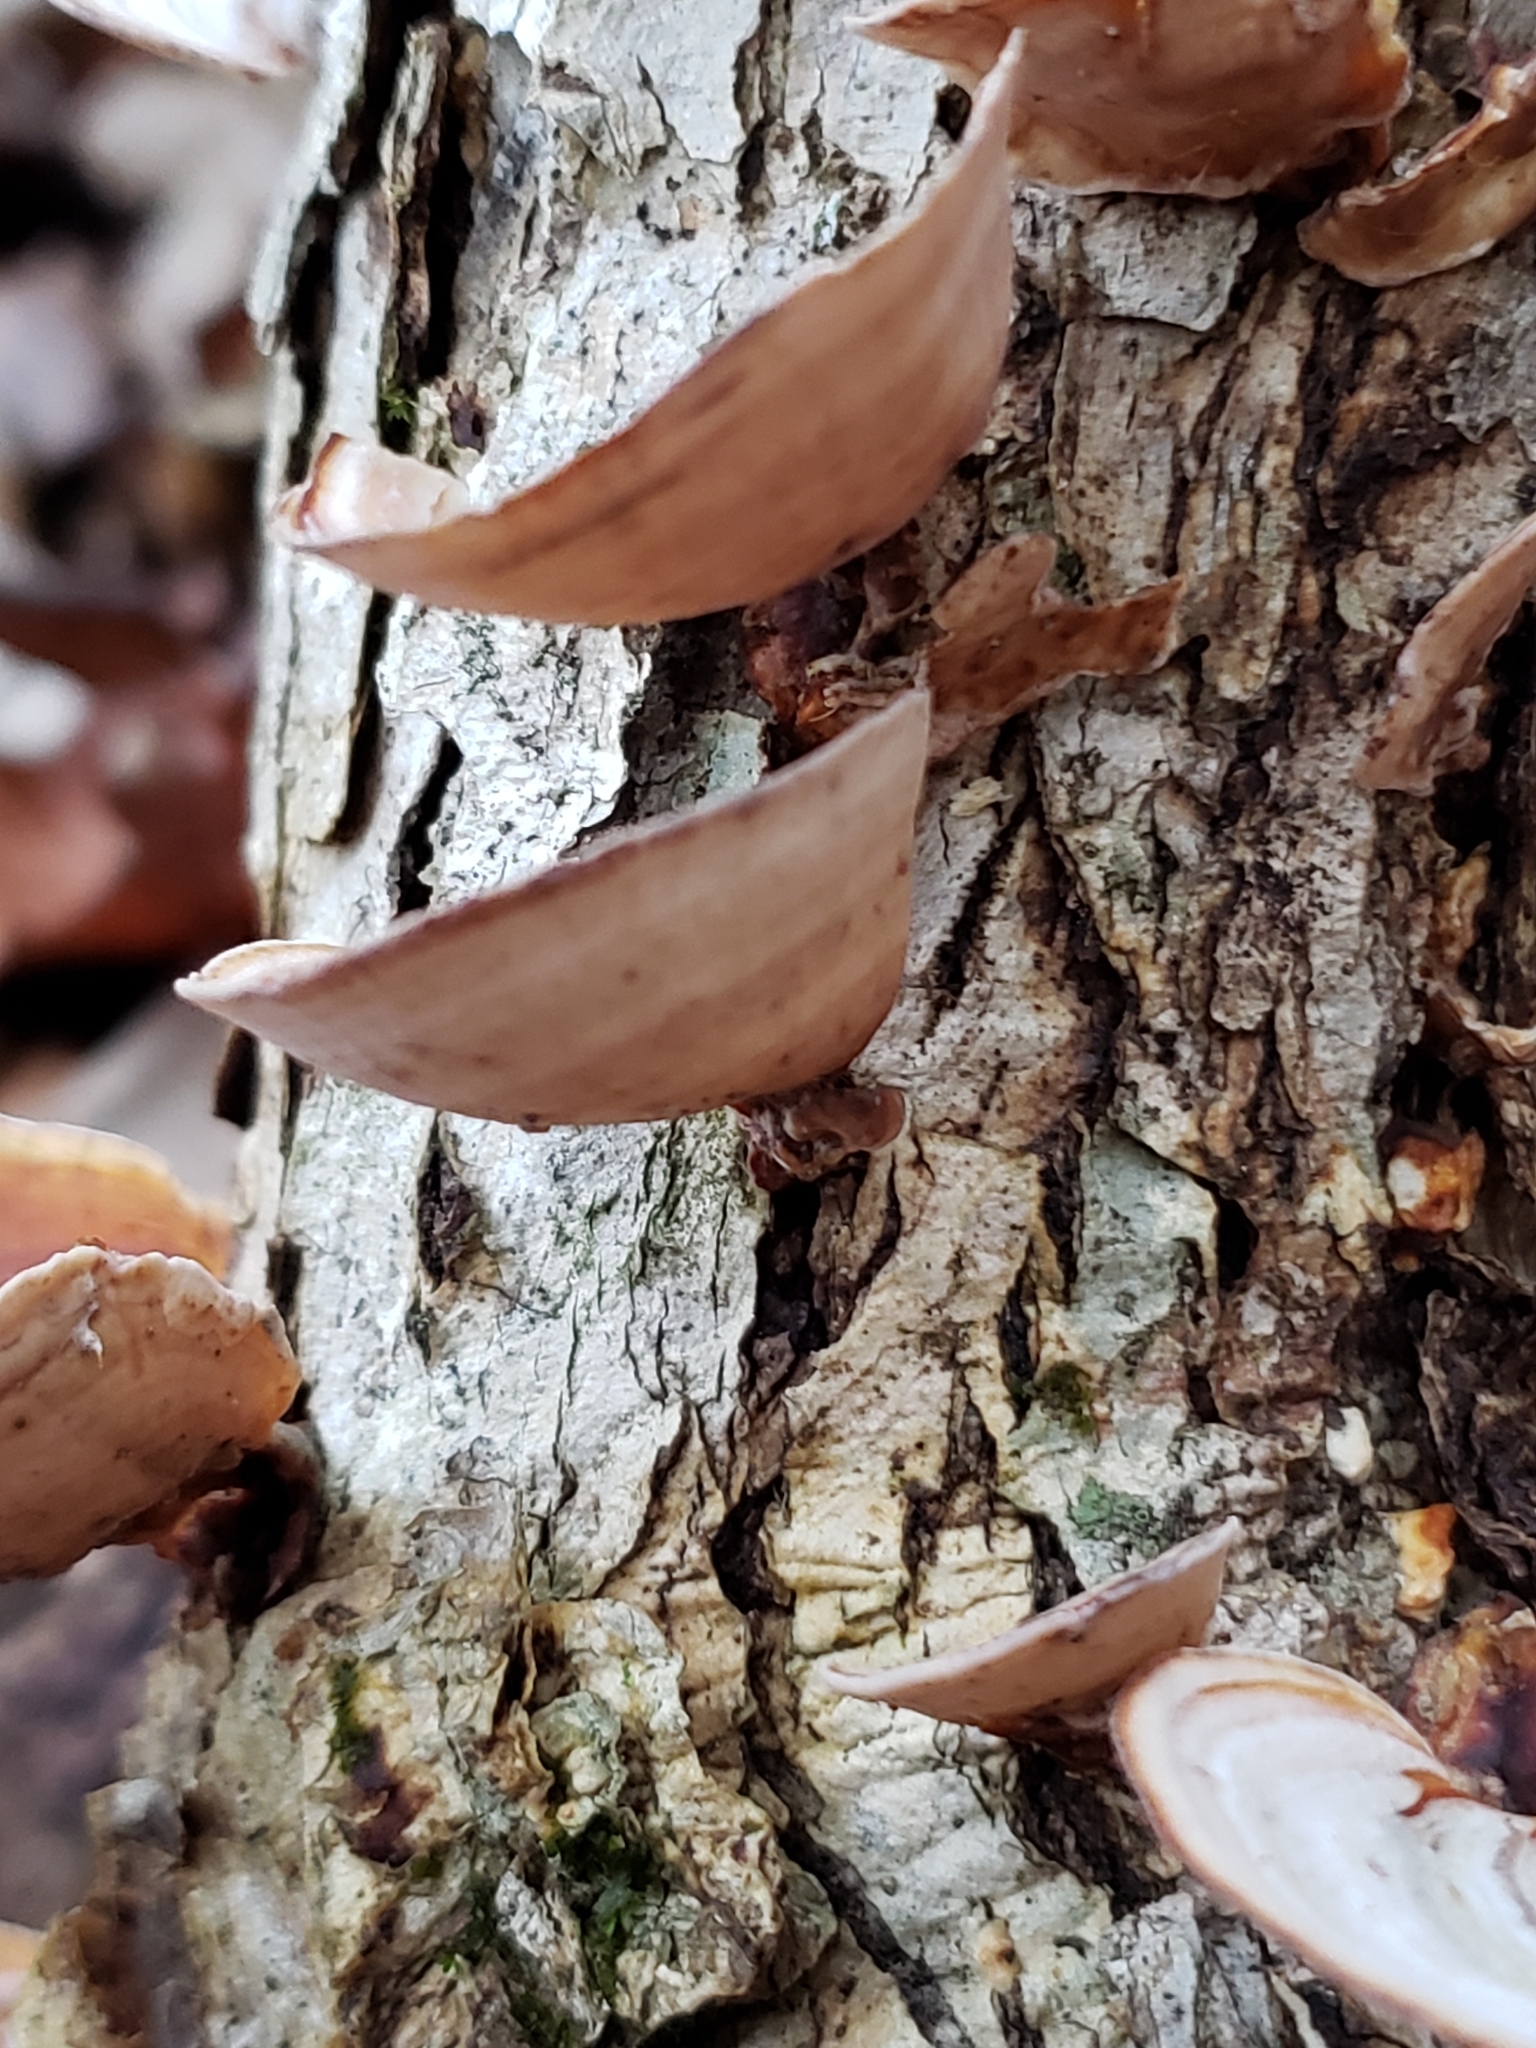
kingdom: Fungi
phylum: Basidiomycota
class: Agaricomycetes
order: Russulales
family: Stereaceae
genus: Stereum
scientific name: Stereum ostrea
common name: False turkeytail
